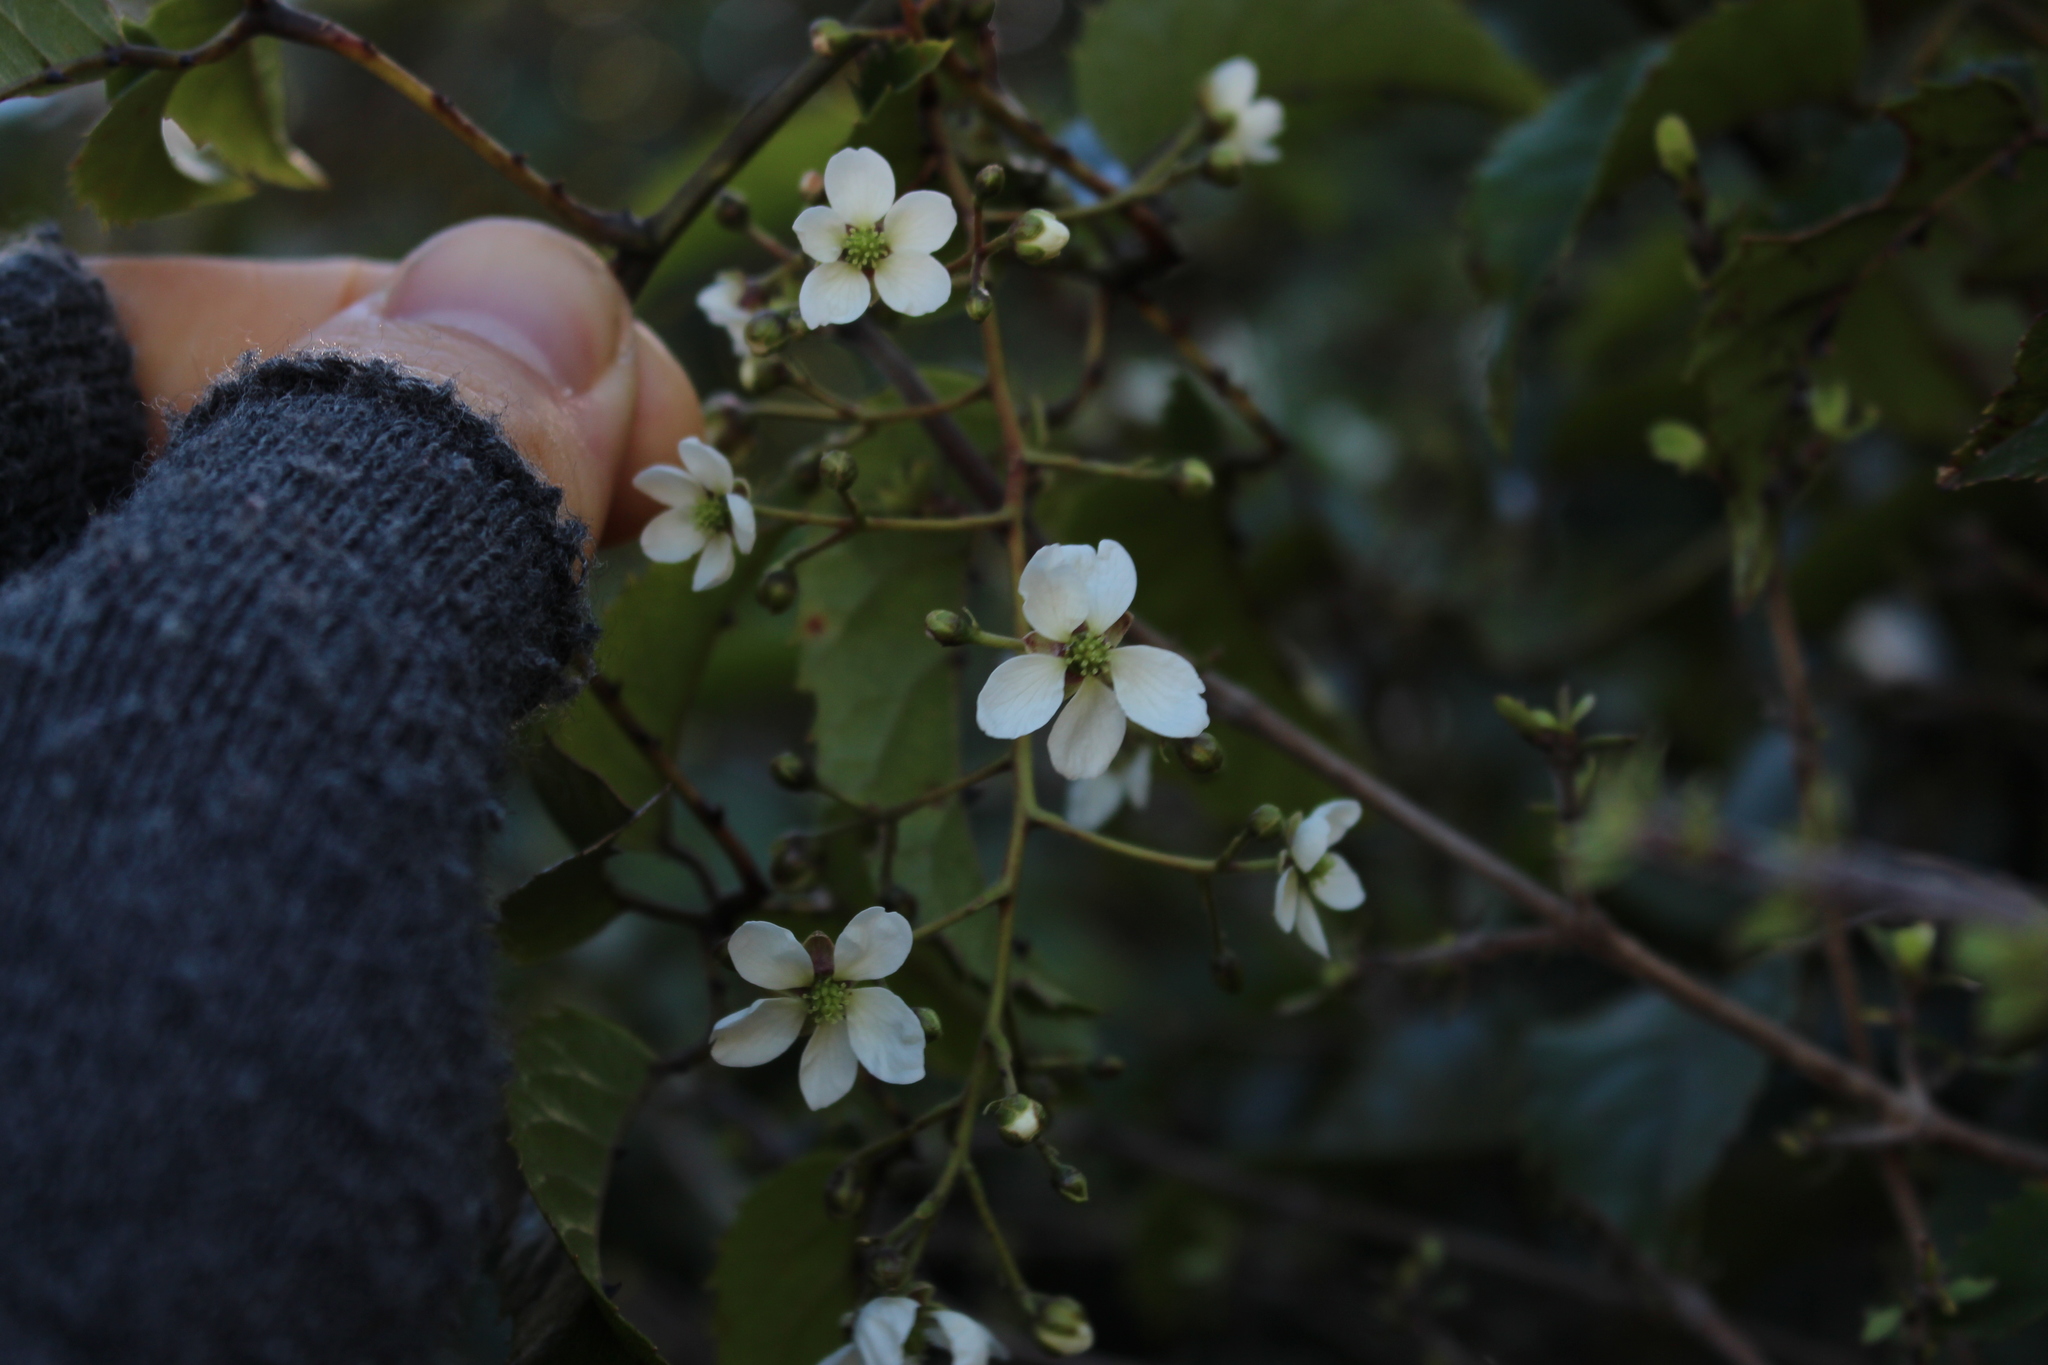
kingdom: Plantae
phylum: Tracheophyta
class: Magnoliopsida
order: Rosales
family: Rosaceae
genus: Rubus
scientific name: Rubus cissoides
